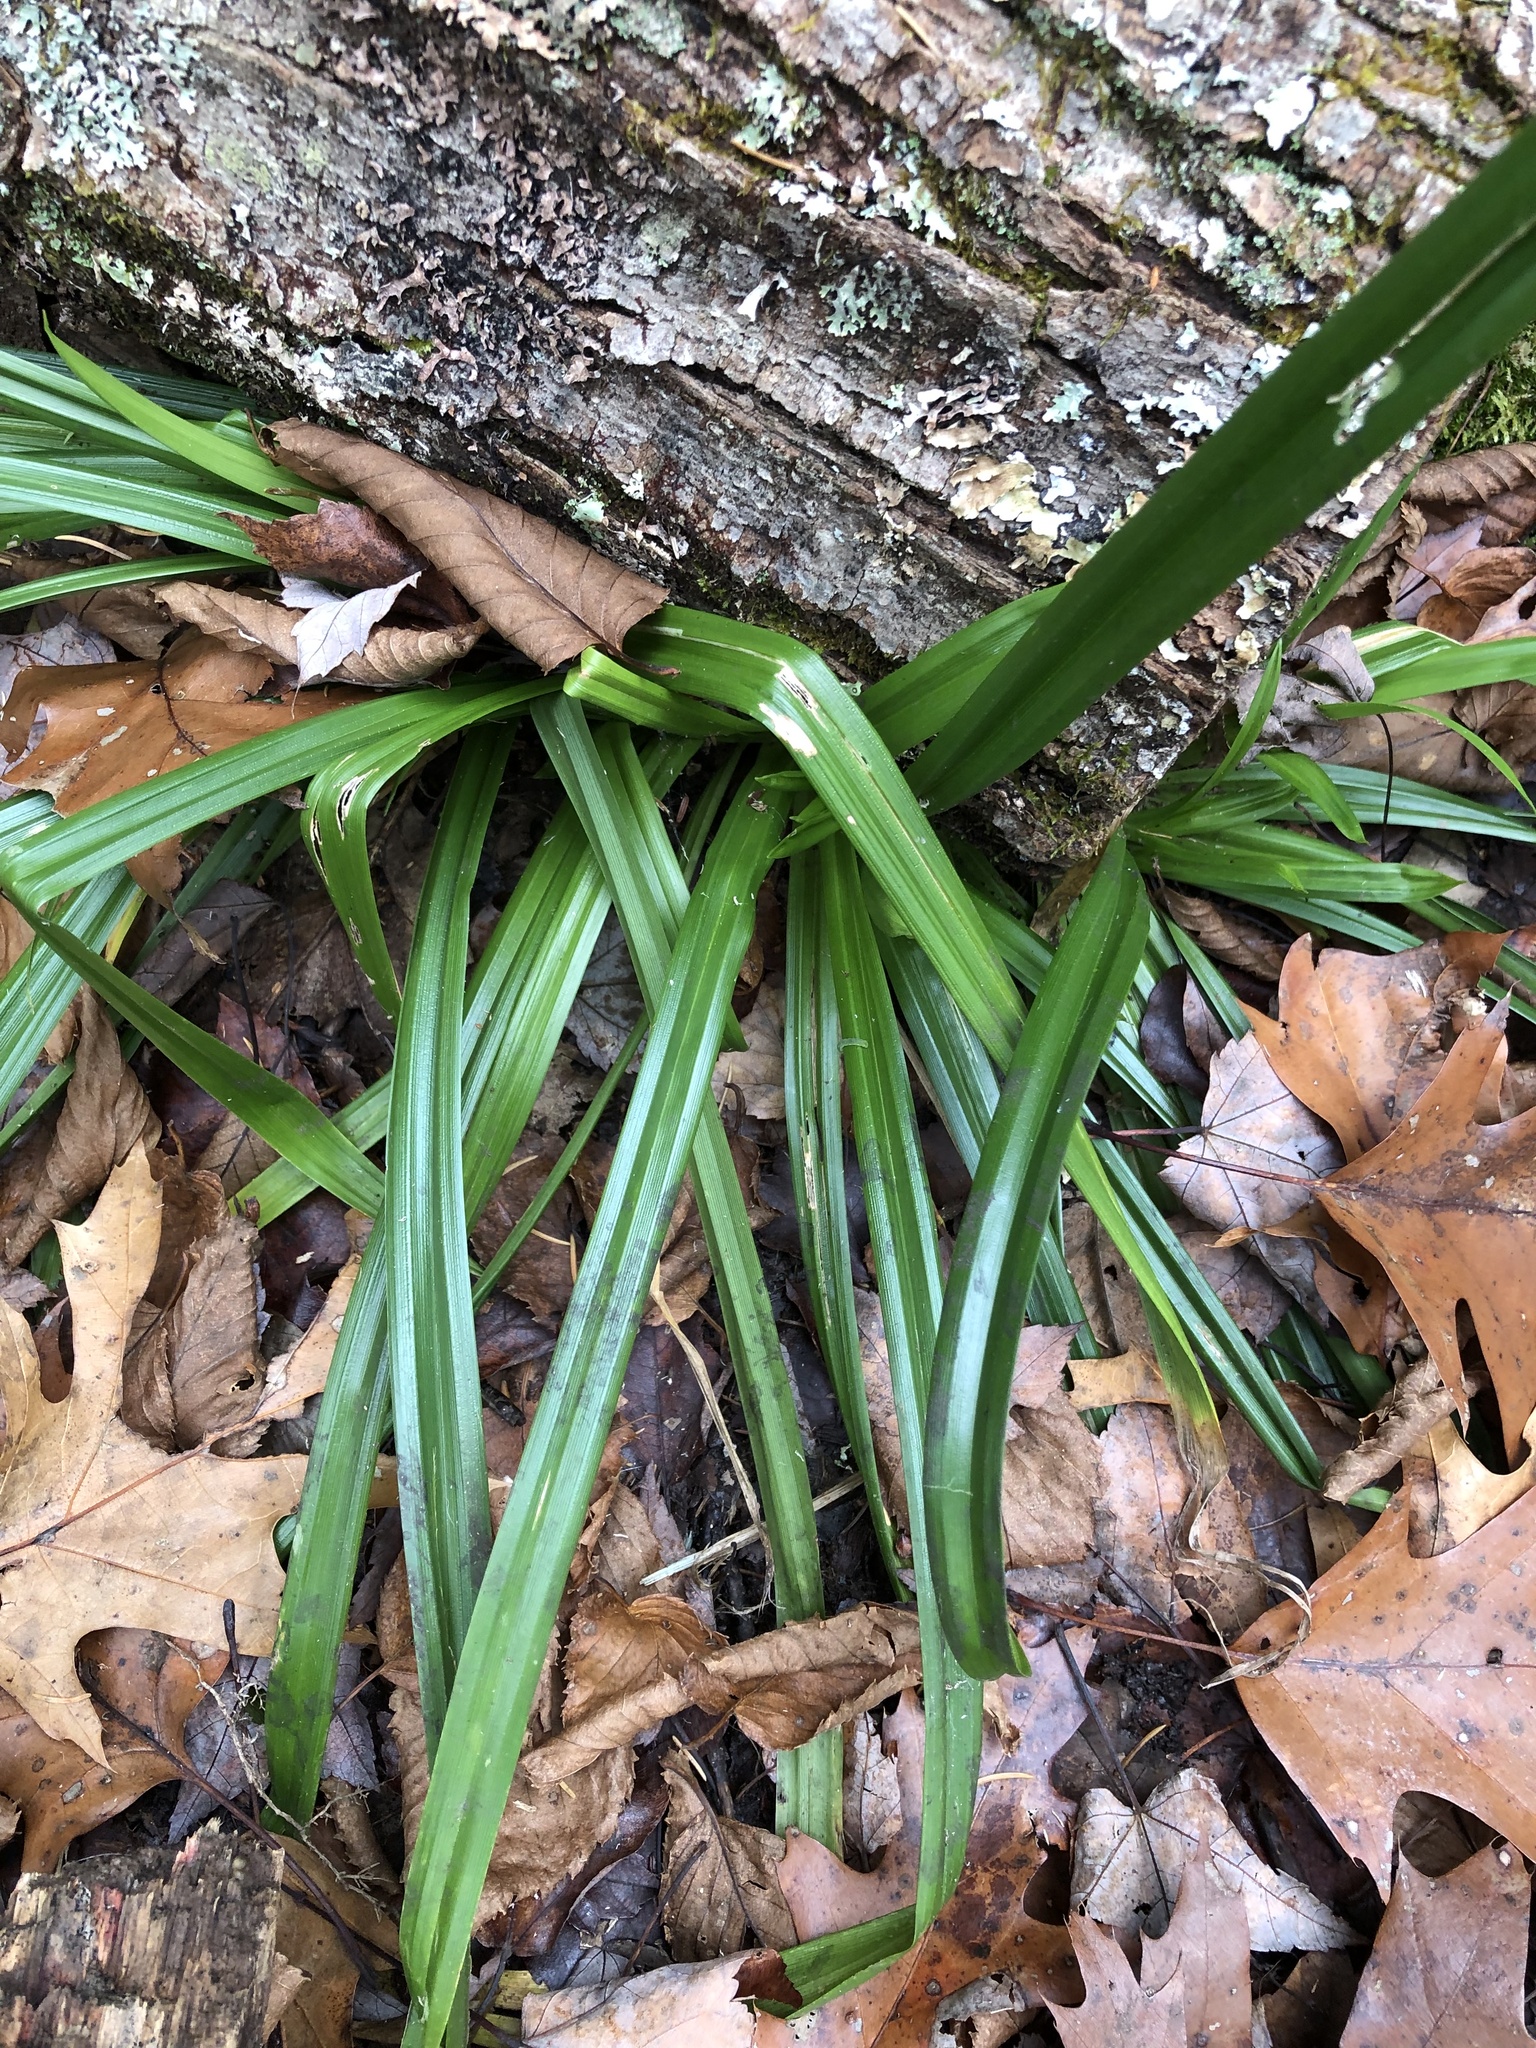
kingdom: Plantae
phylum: Tracheophyta
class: Liliopsida
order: Poales
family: Cyperaceae
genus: Carex
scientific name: Carex
